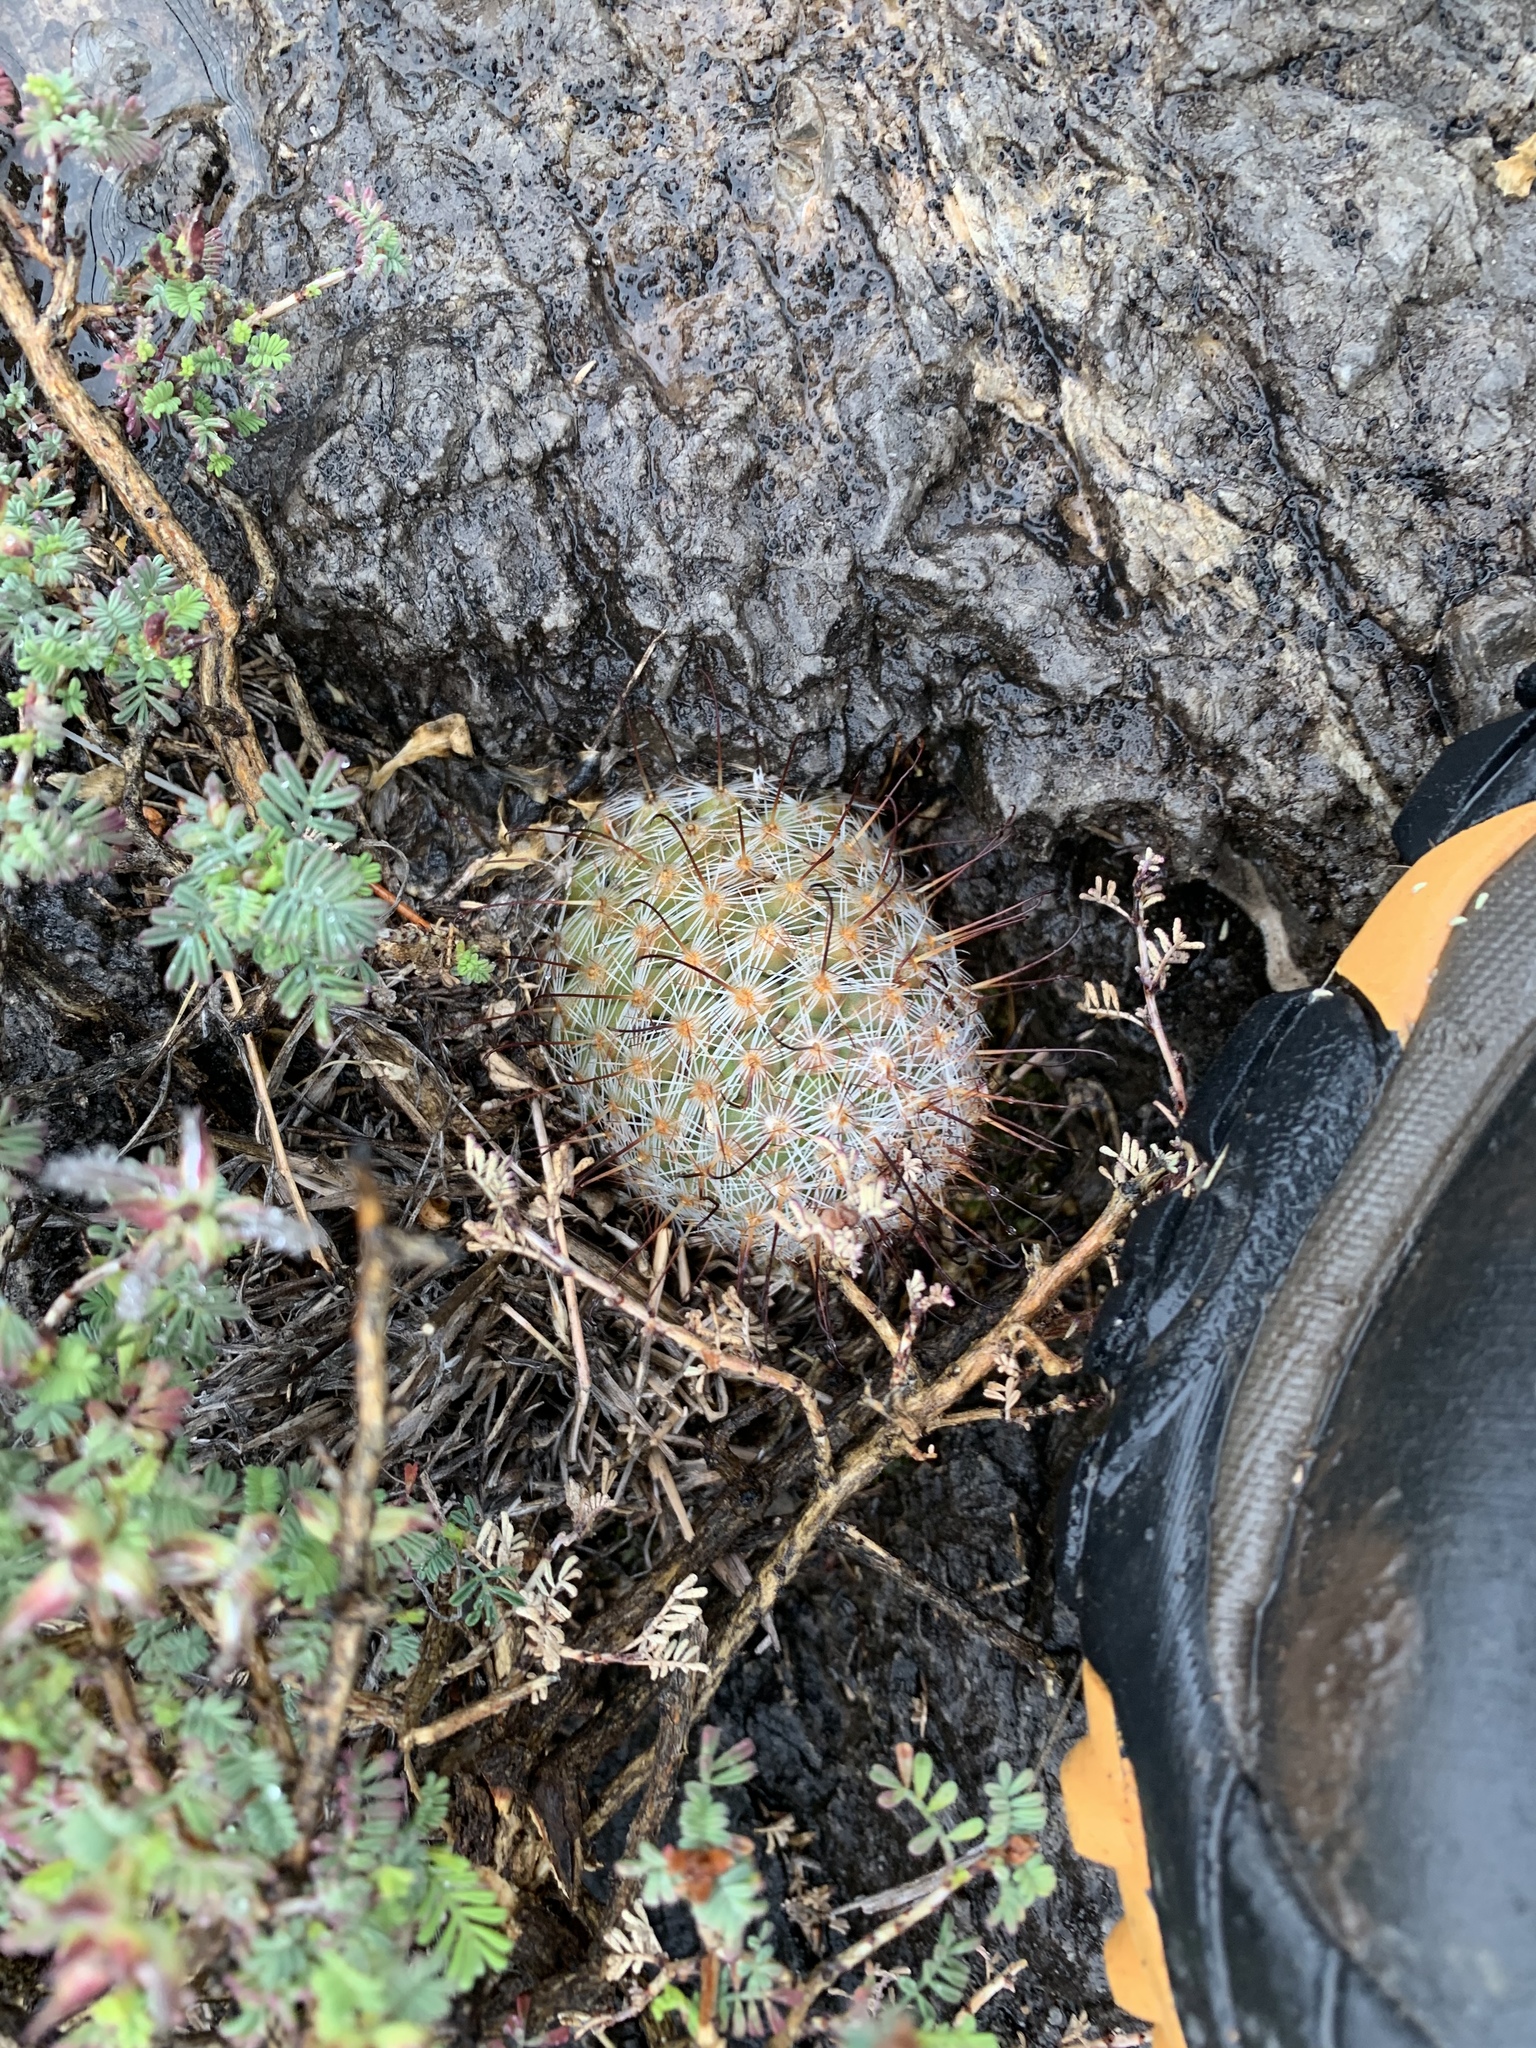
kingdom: Plantae
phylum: Tracheophyta
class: Magnoliopsida
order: Caryophyllales
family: Cactaceae
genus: Cochemiea
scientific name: Cochemiea grahamii
